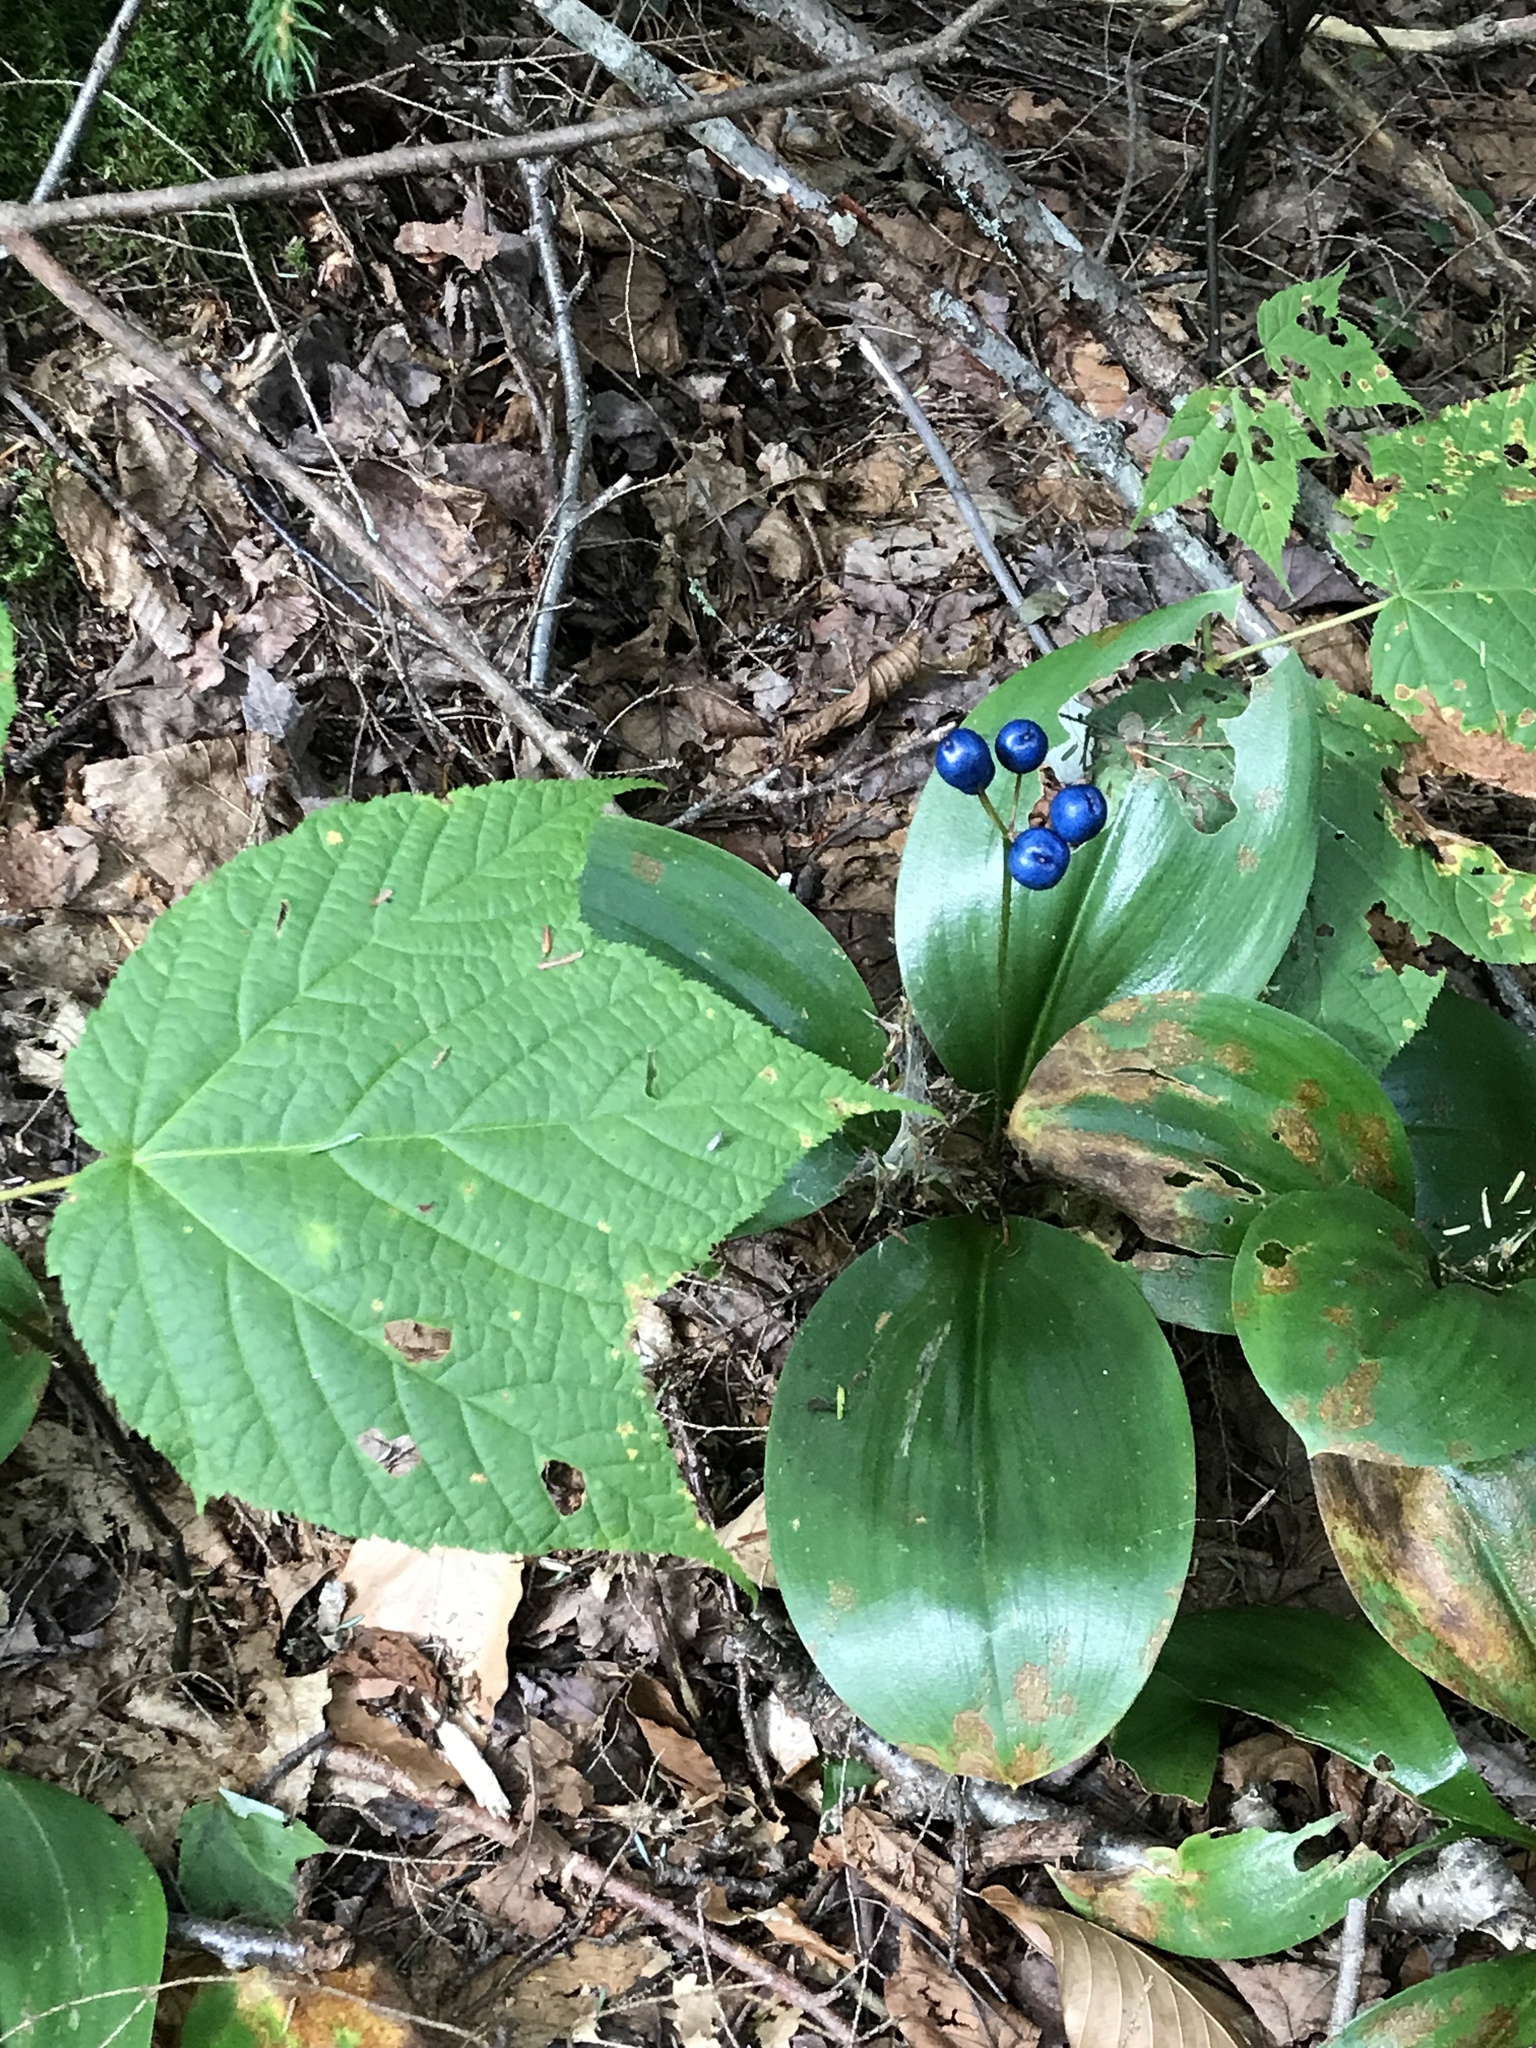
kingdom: Plantae
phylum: Tracheophyta
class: Liliopsida
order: Liliales
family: Liliaceae
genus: Clintonia
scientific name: Clintonia borealis
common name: Yellow clintonia
